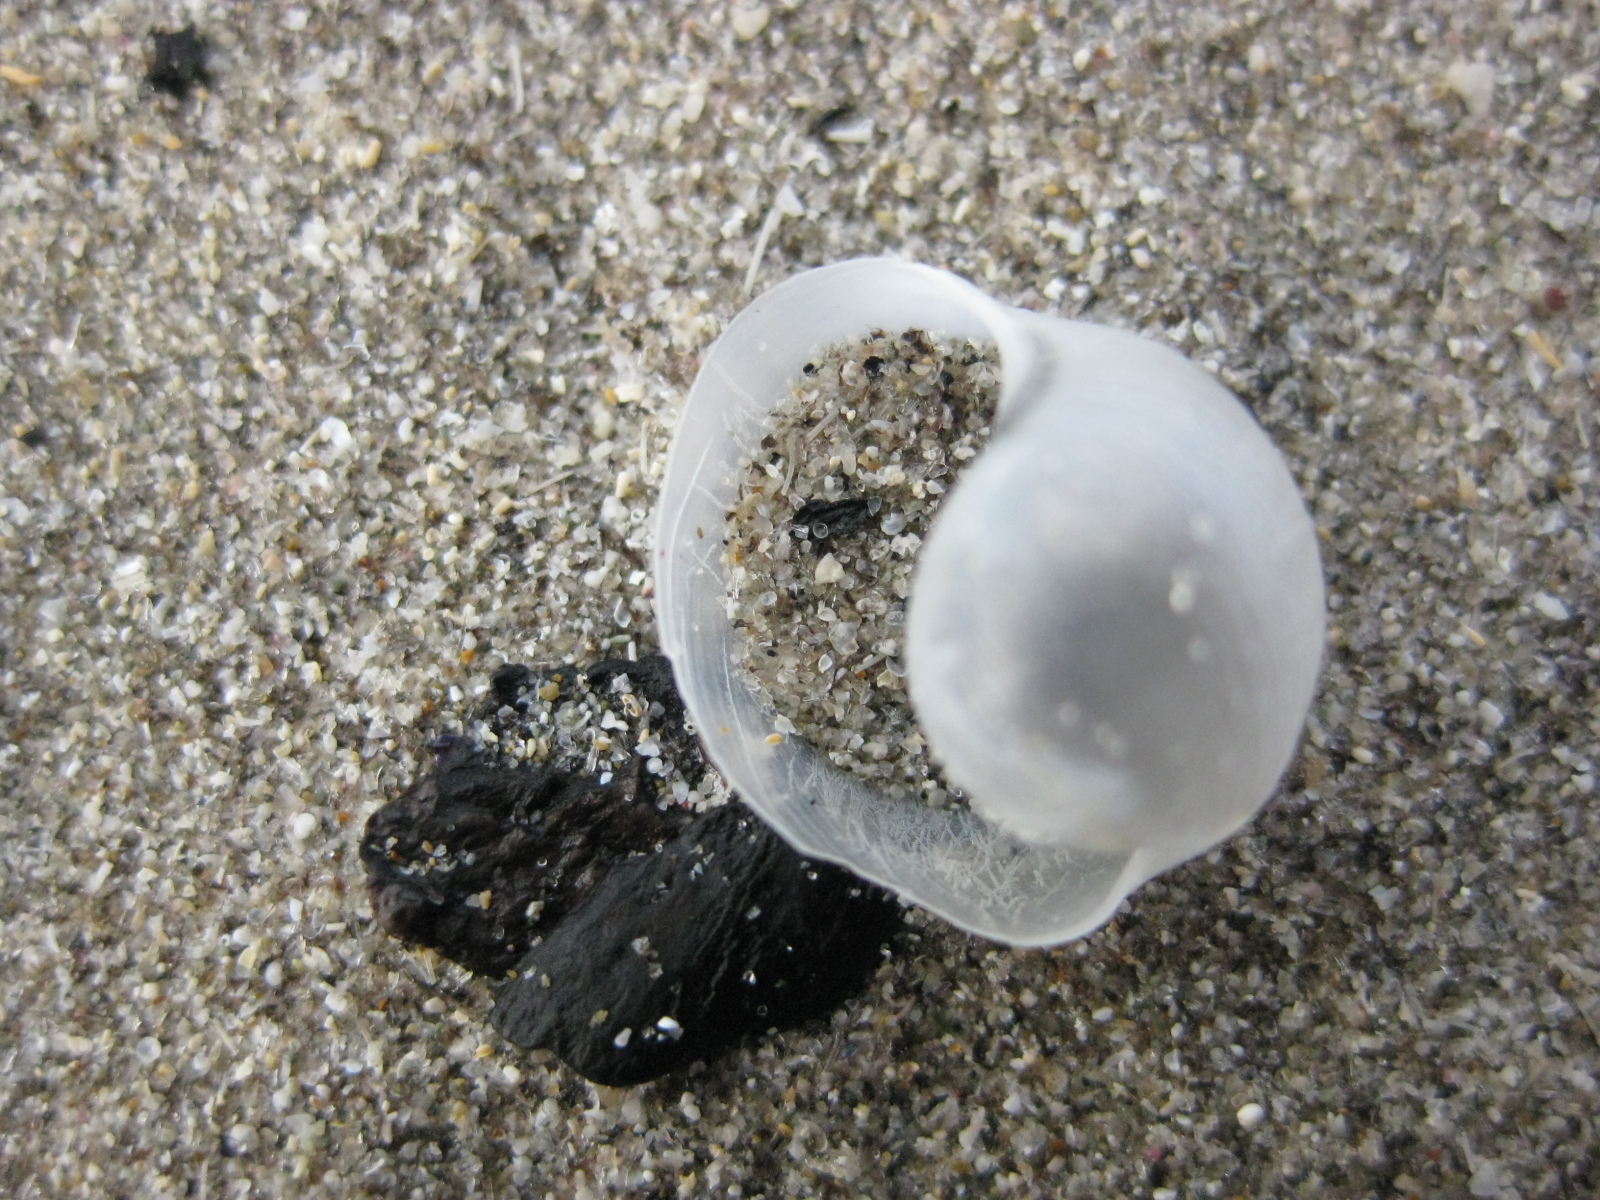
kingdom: Animalia
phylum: Mollusca
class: Gastropoda
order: Cephalaspidea
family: Haminoeidae
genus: Papawera
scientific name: Papawera zelandiae
